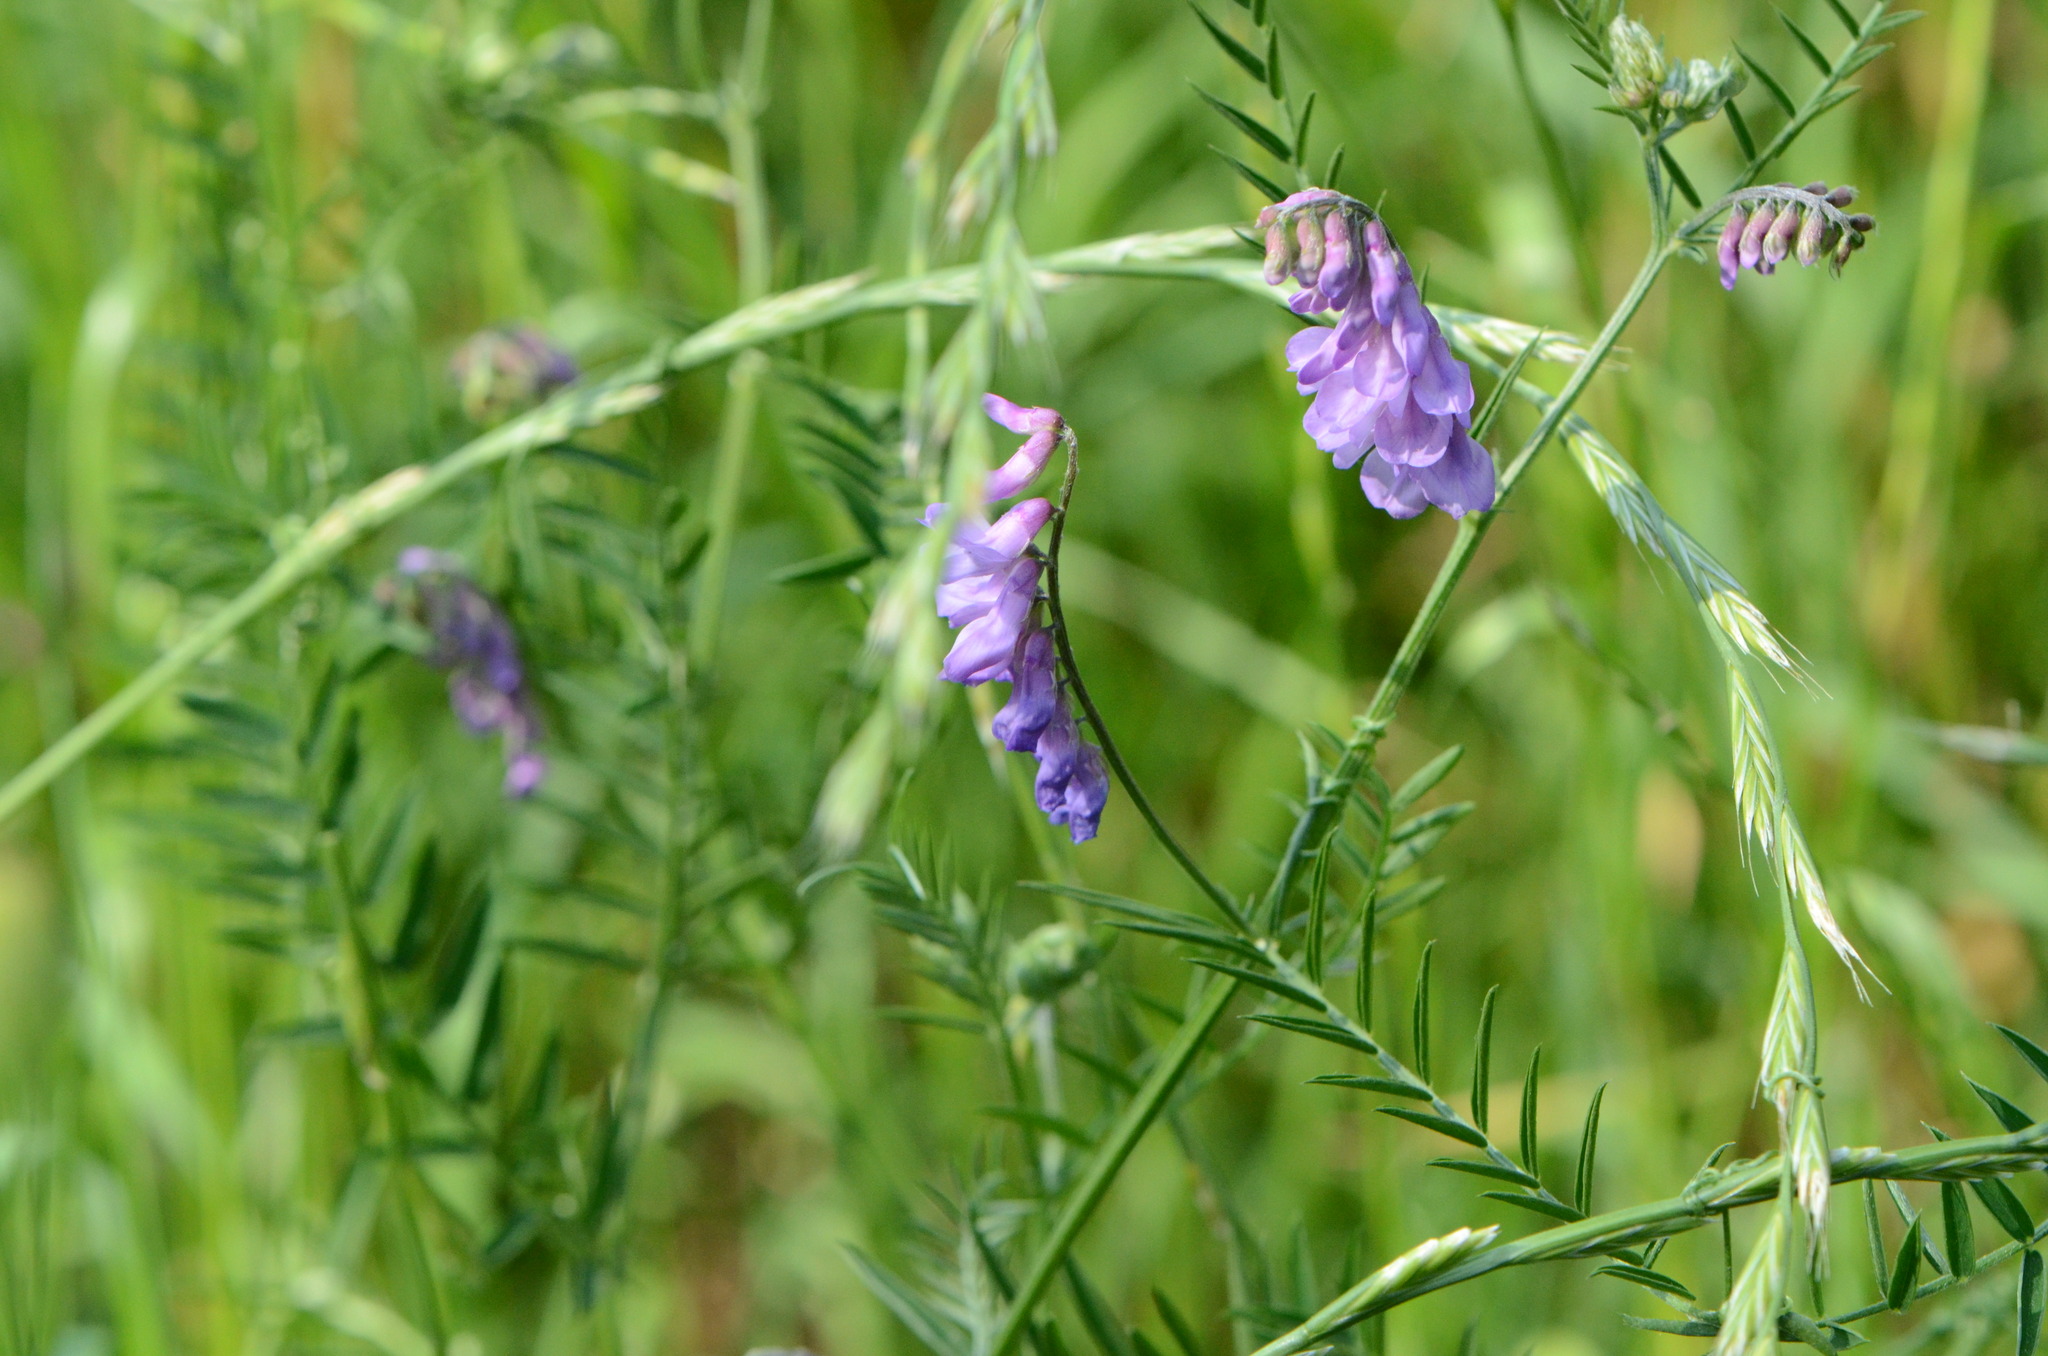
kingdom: Plantae
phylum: Tracheophyta
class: Magnoliopsida
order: Fabales
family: Fabaceae
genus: Vicia
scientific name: Vicia cracca
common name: Bird vetch
